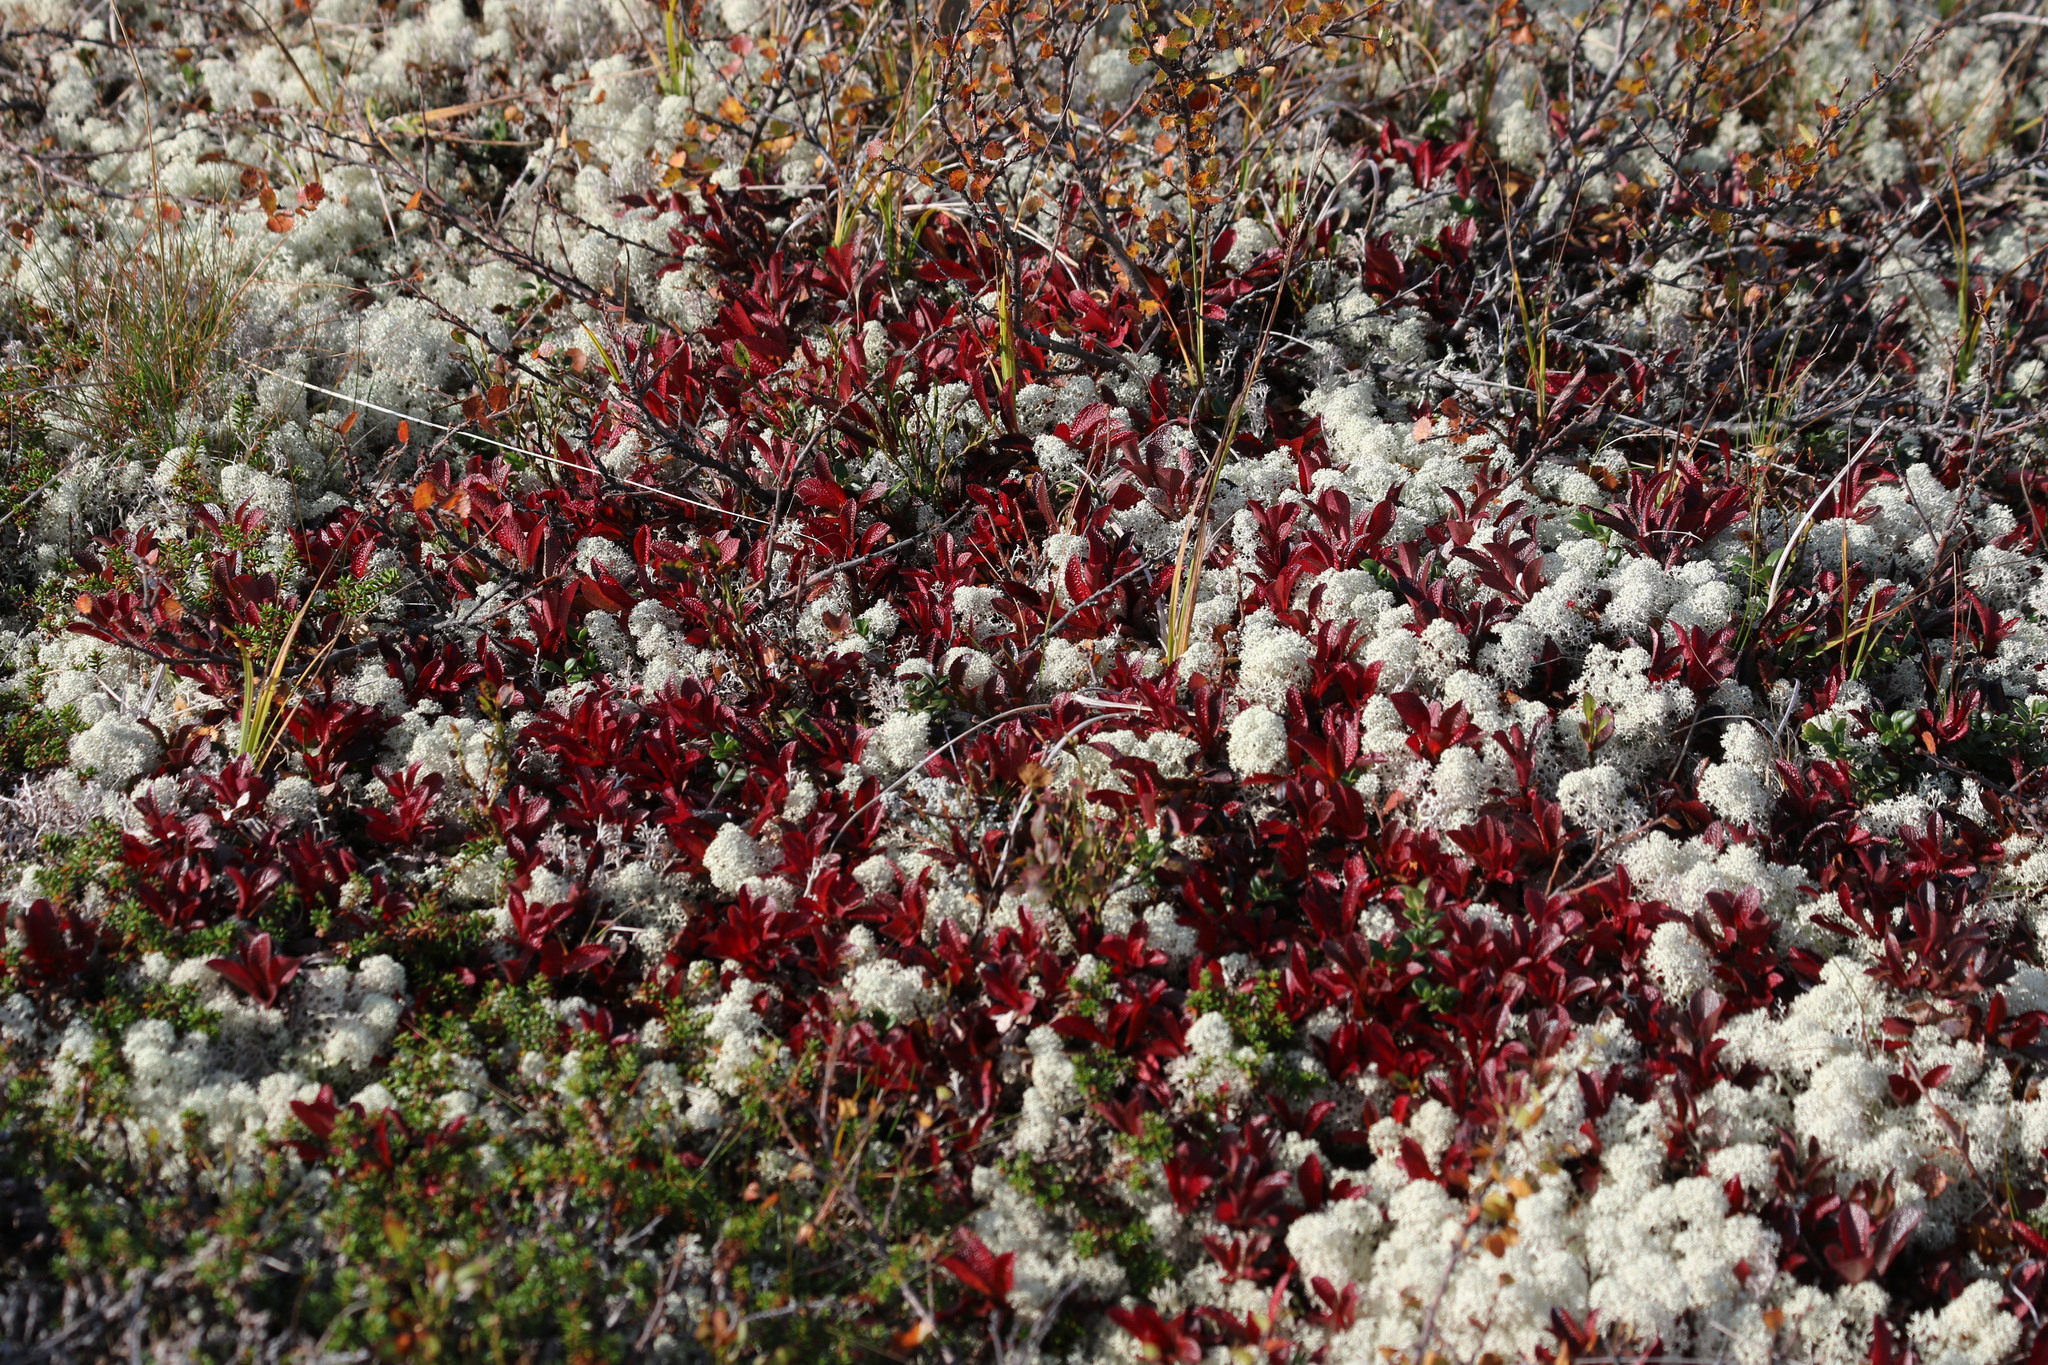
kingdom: Plantae
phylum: Tracheophyta
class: Magnoliopsida
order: Ericales
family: Ericaceae
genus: Arctostaphylos
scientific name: Arctostaphylos alpinus
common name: Alpine bearberry
